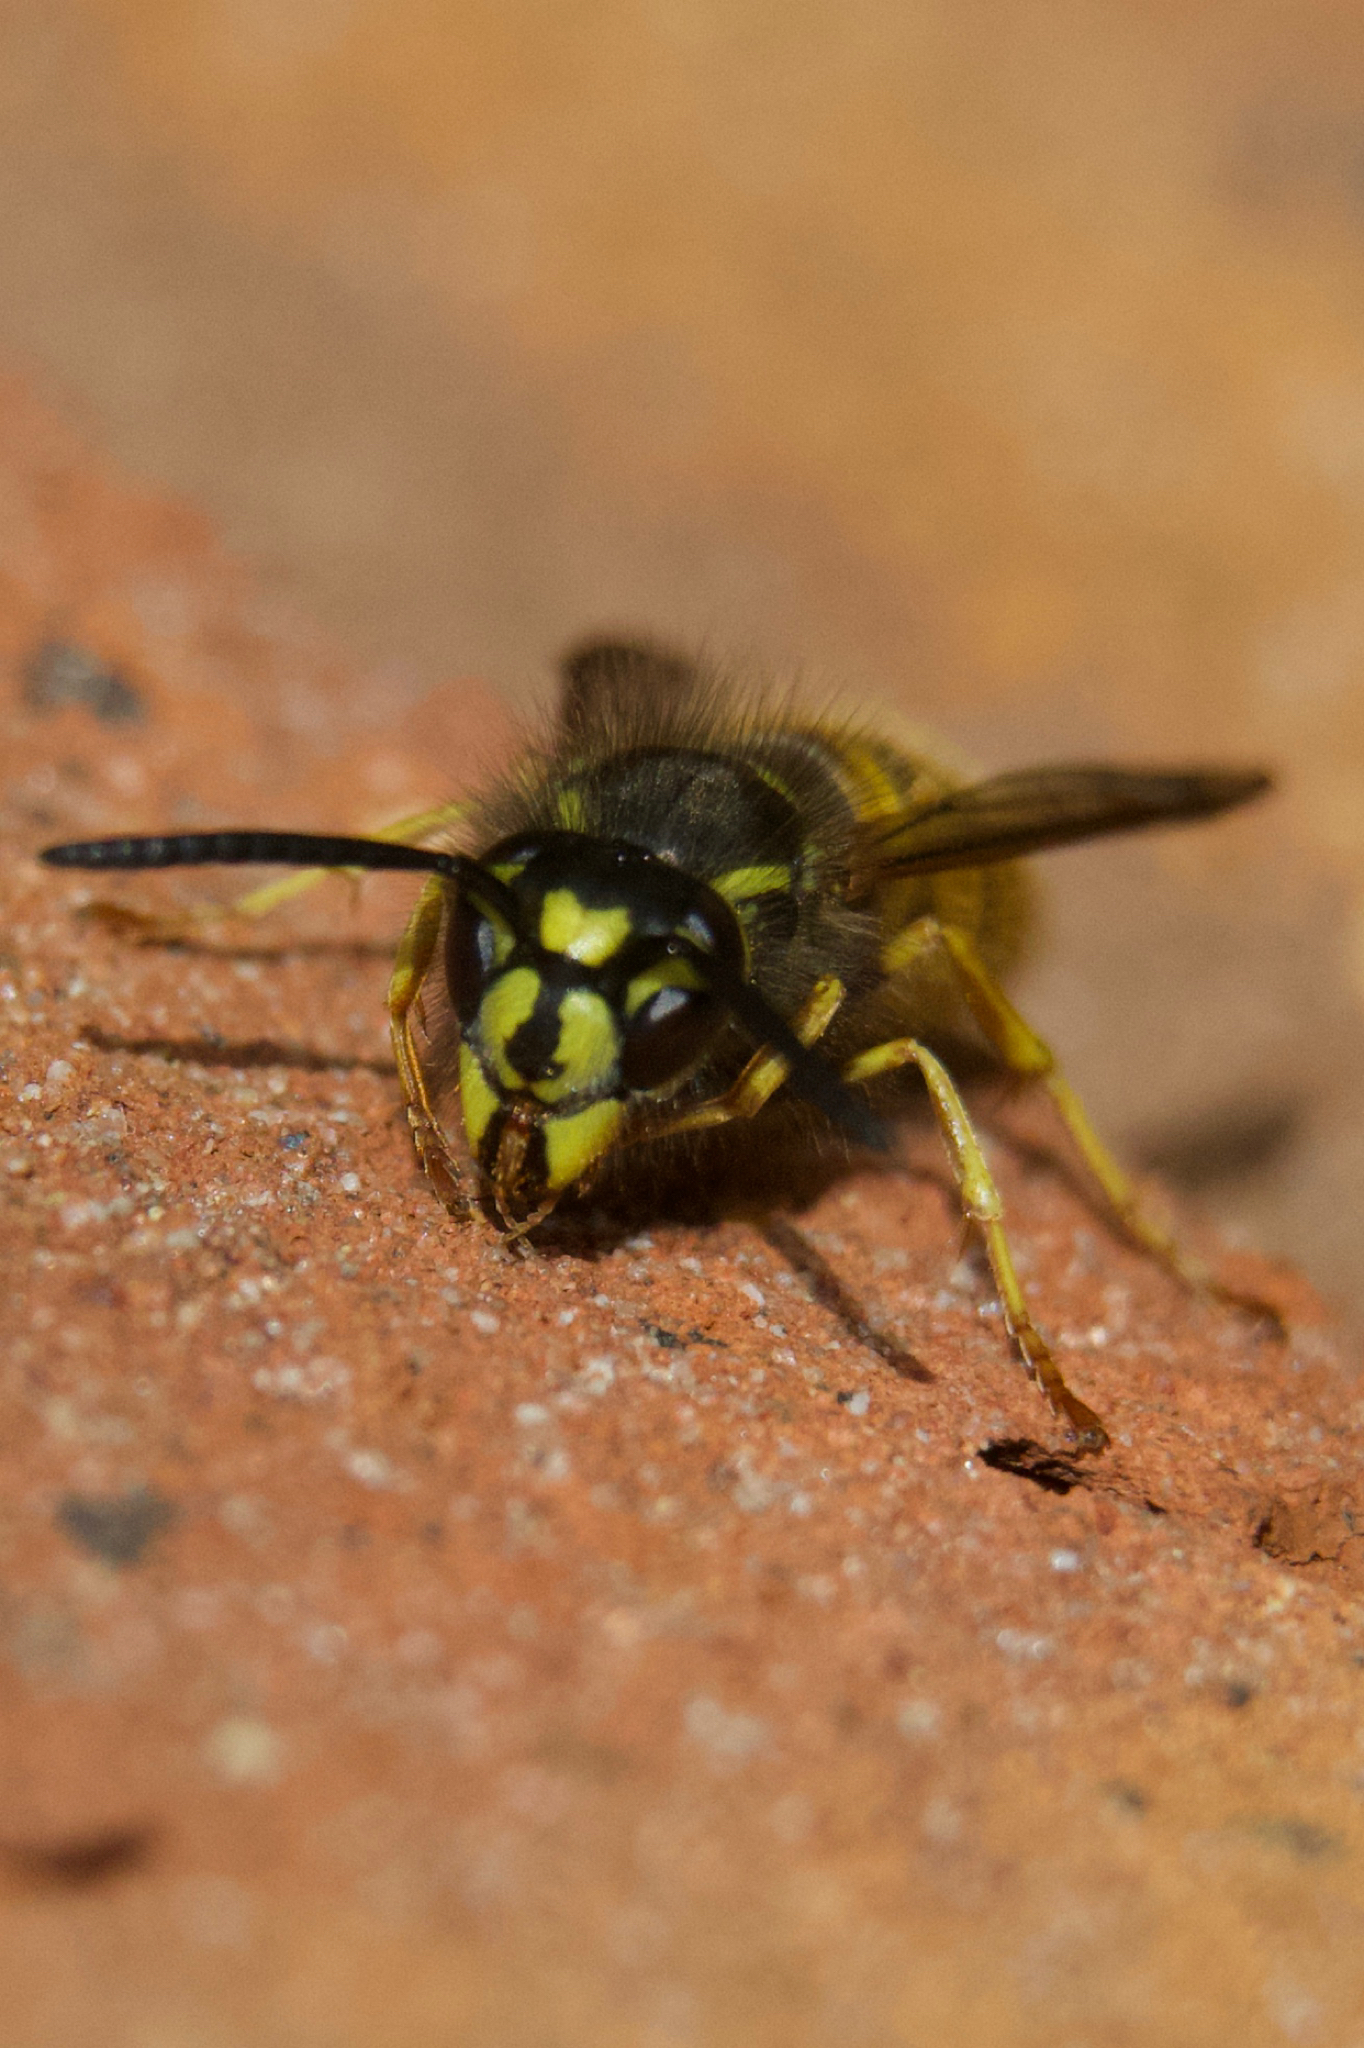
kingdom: Animalia
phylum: Arthropoda
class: Insecta
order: Hymenoptera
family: Vespidae
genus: Vespula
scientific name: Vespula vulgaris
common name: Common wasp
